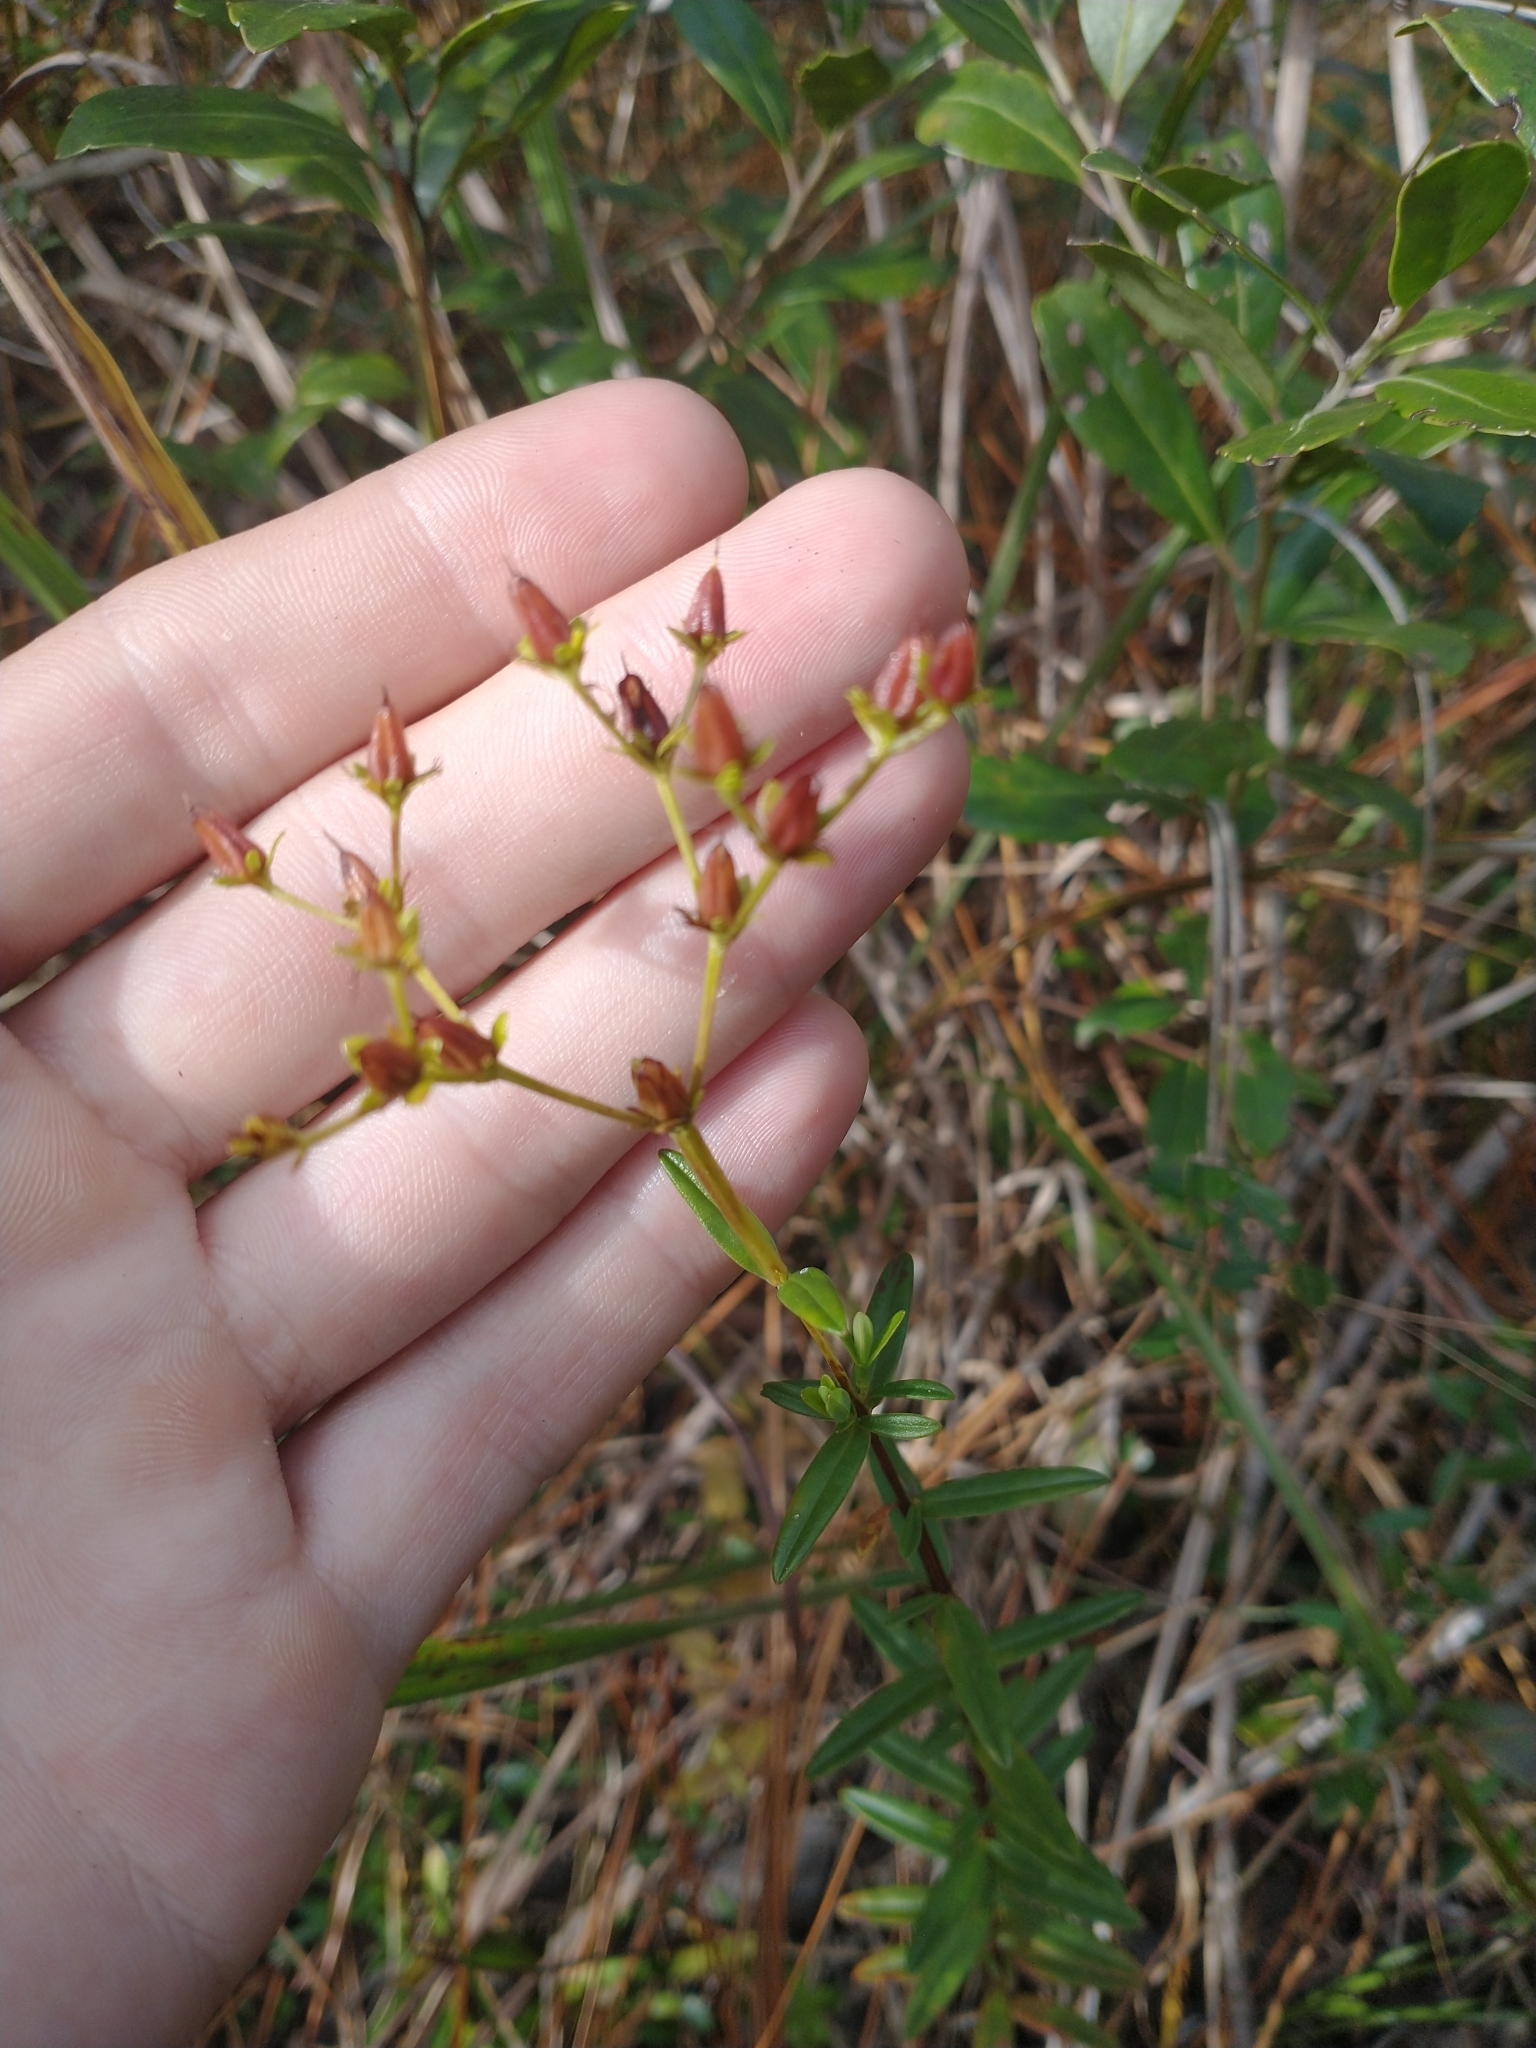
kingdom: Plantae
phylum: Tracheophyta
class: Magnoliopsida
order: Malpighiales
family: Hypericaceae
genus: Hypericum
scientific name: Hypericum cistifolium
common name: Round-pod st. john's-wort
